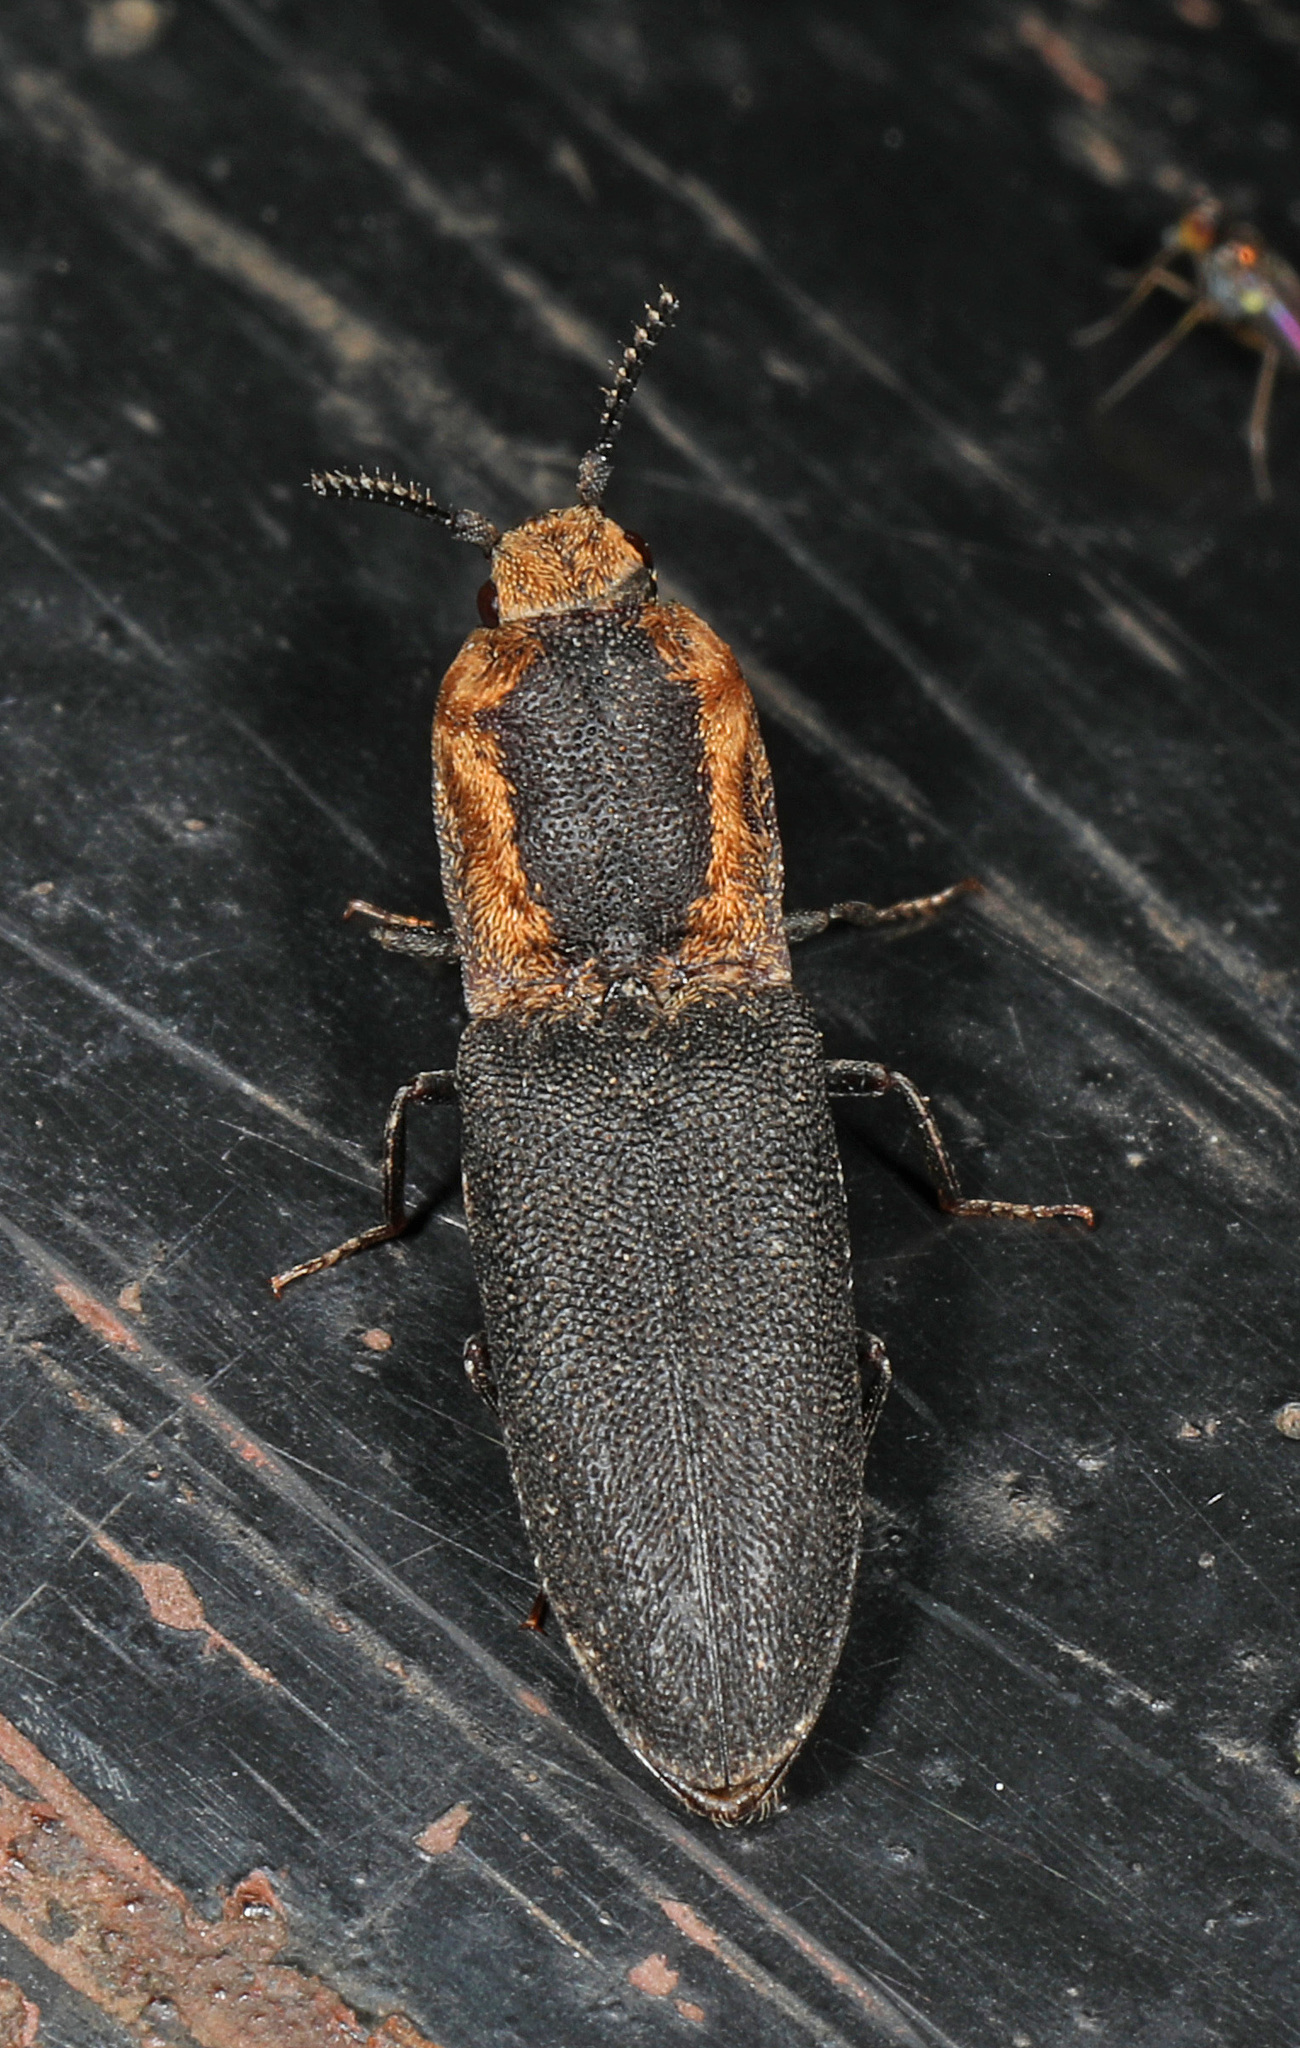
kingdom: Animalia
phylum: Arthropoda
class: Insecta
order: Coleoptera
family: Elateridae
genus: Lacon
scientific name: Lacon discoideus
